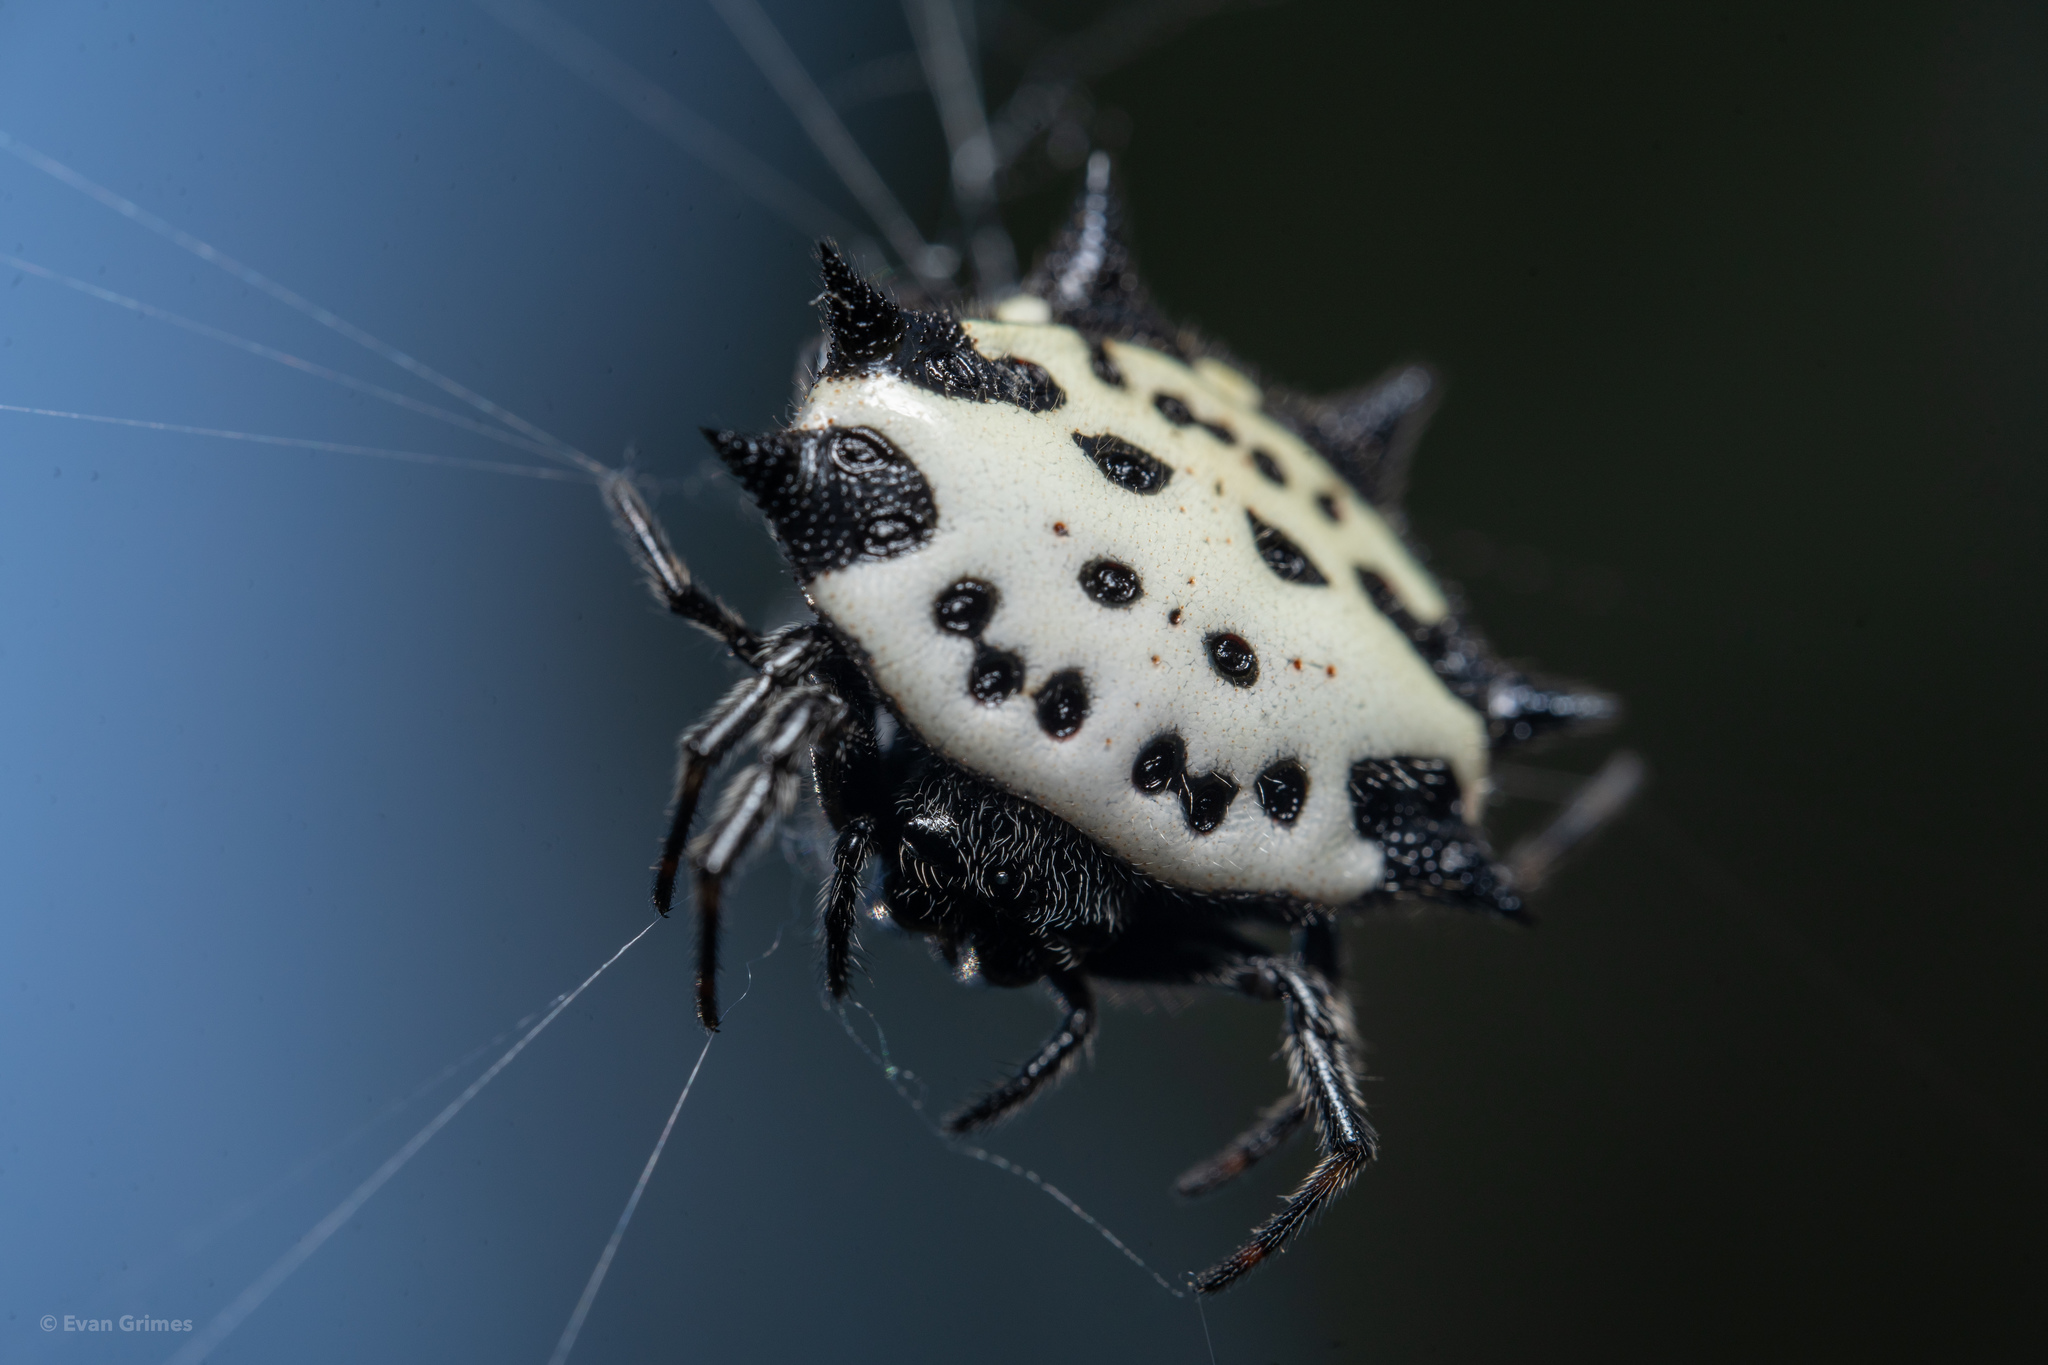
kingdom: Animalia
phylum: Arthropoda
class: Arachnida
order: Araneae
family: Araneidae
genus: Gasteracantha
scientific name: Gasteracantha cancriformis
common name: Orb weavers
